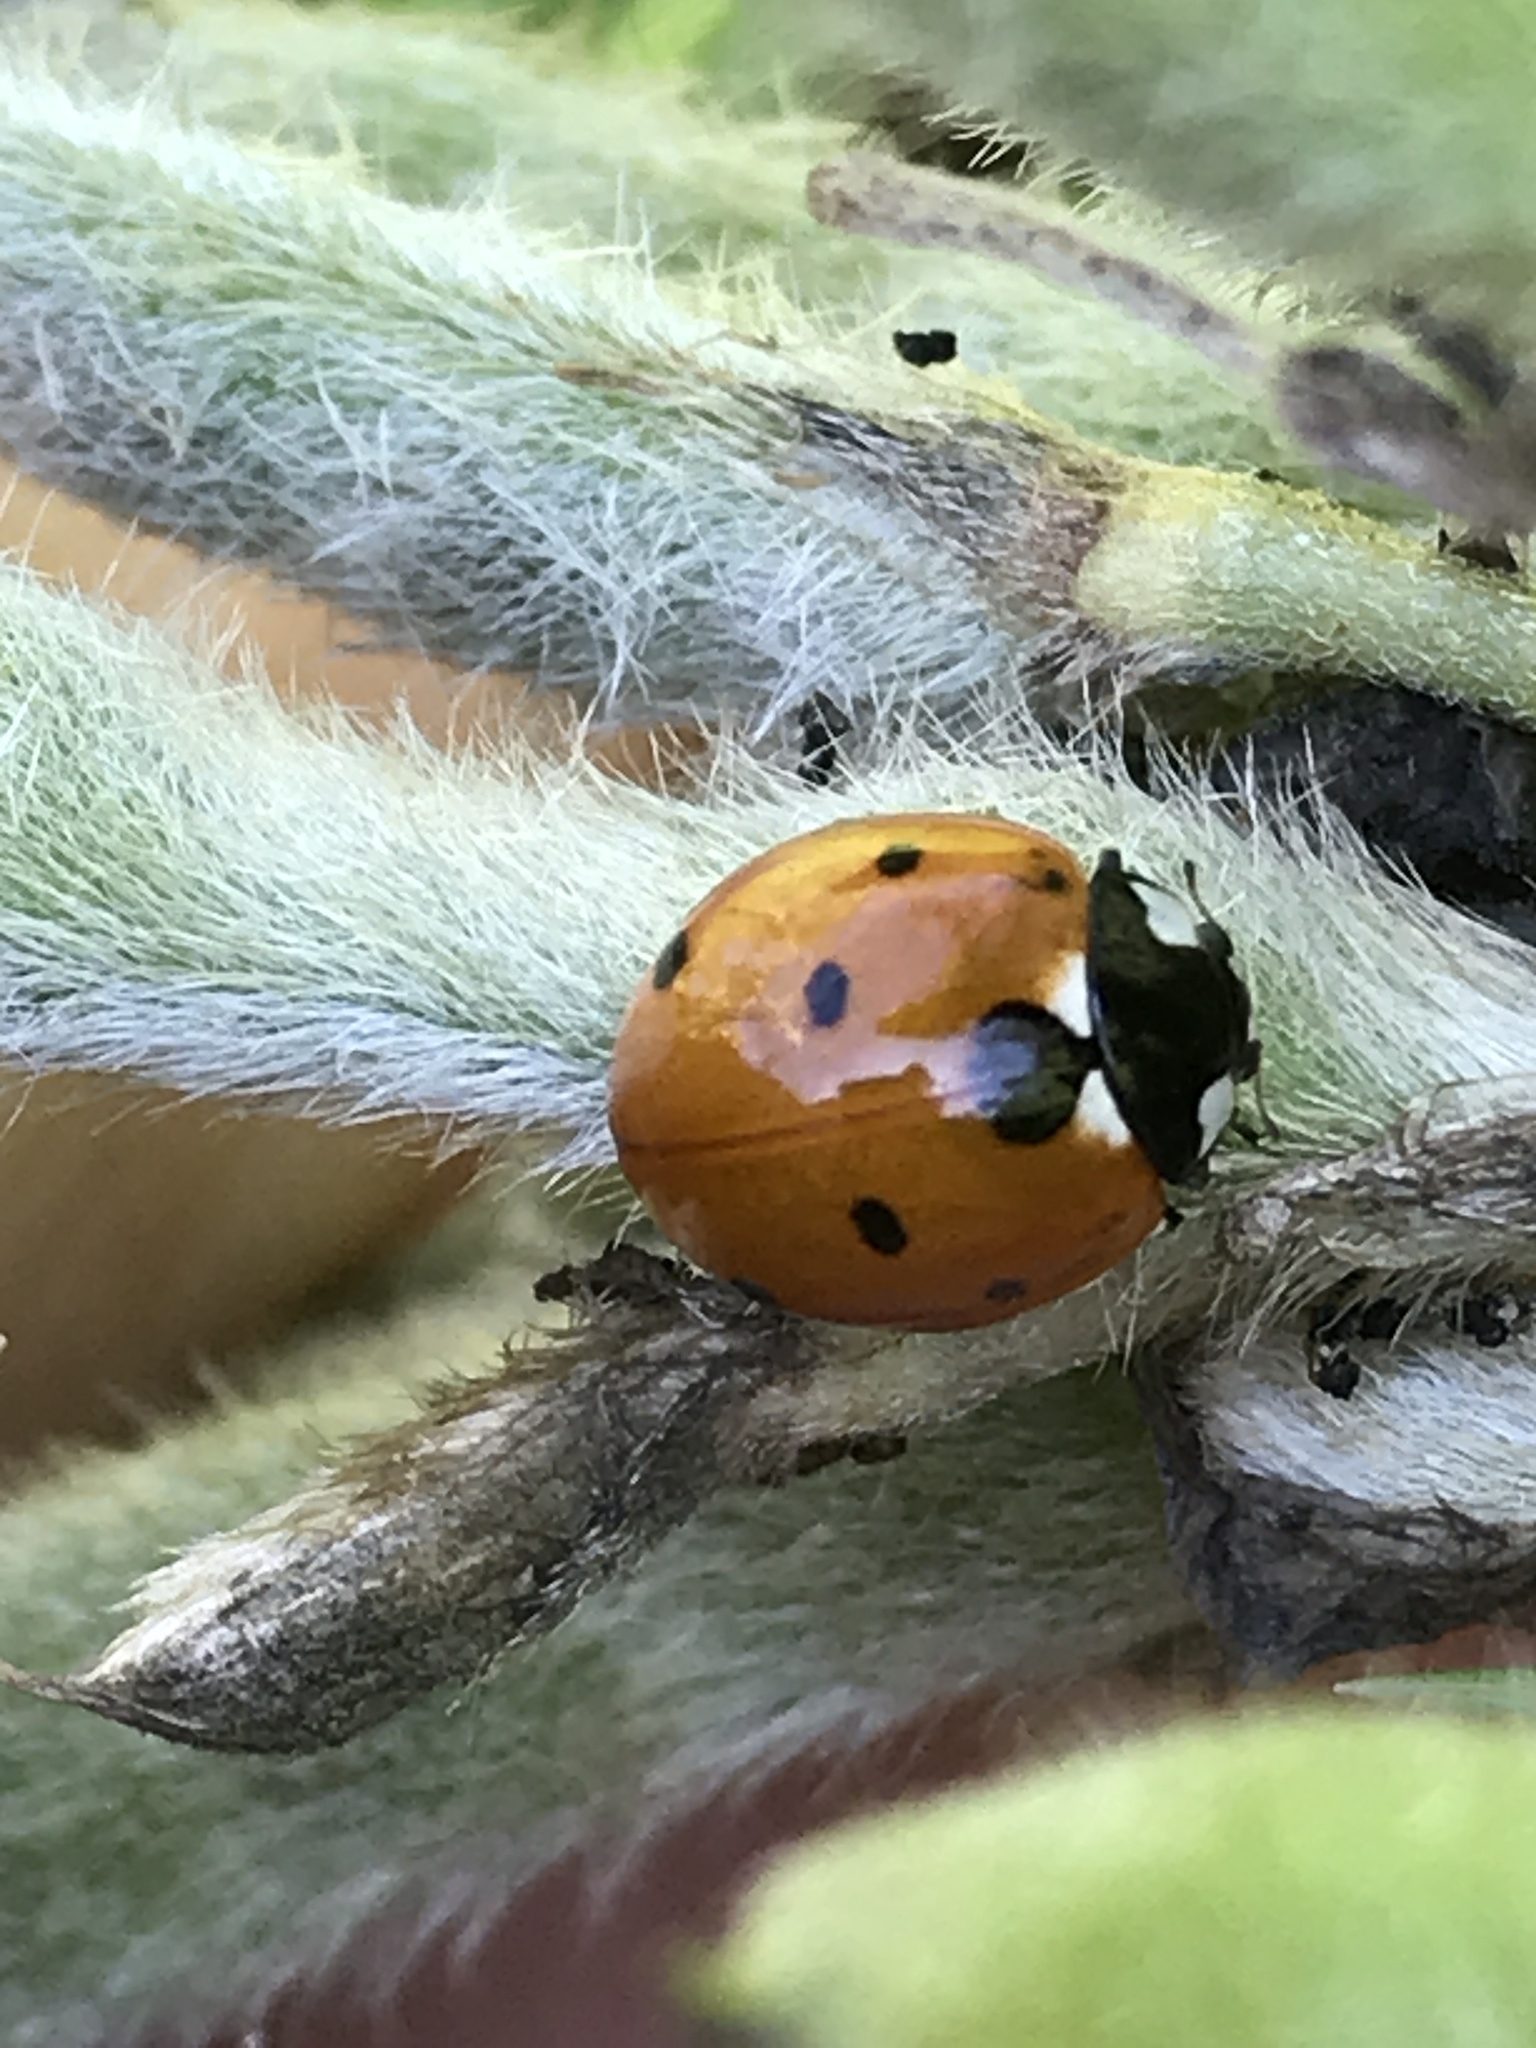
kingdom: Animalia
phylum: Arthropoda
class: Insecta
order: Coleoptera
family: Coccinellidae
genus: Coccinella
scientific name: Coccinella septempunctata
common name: Sevenspotted lady beetle
